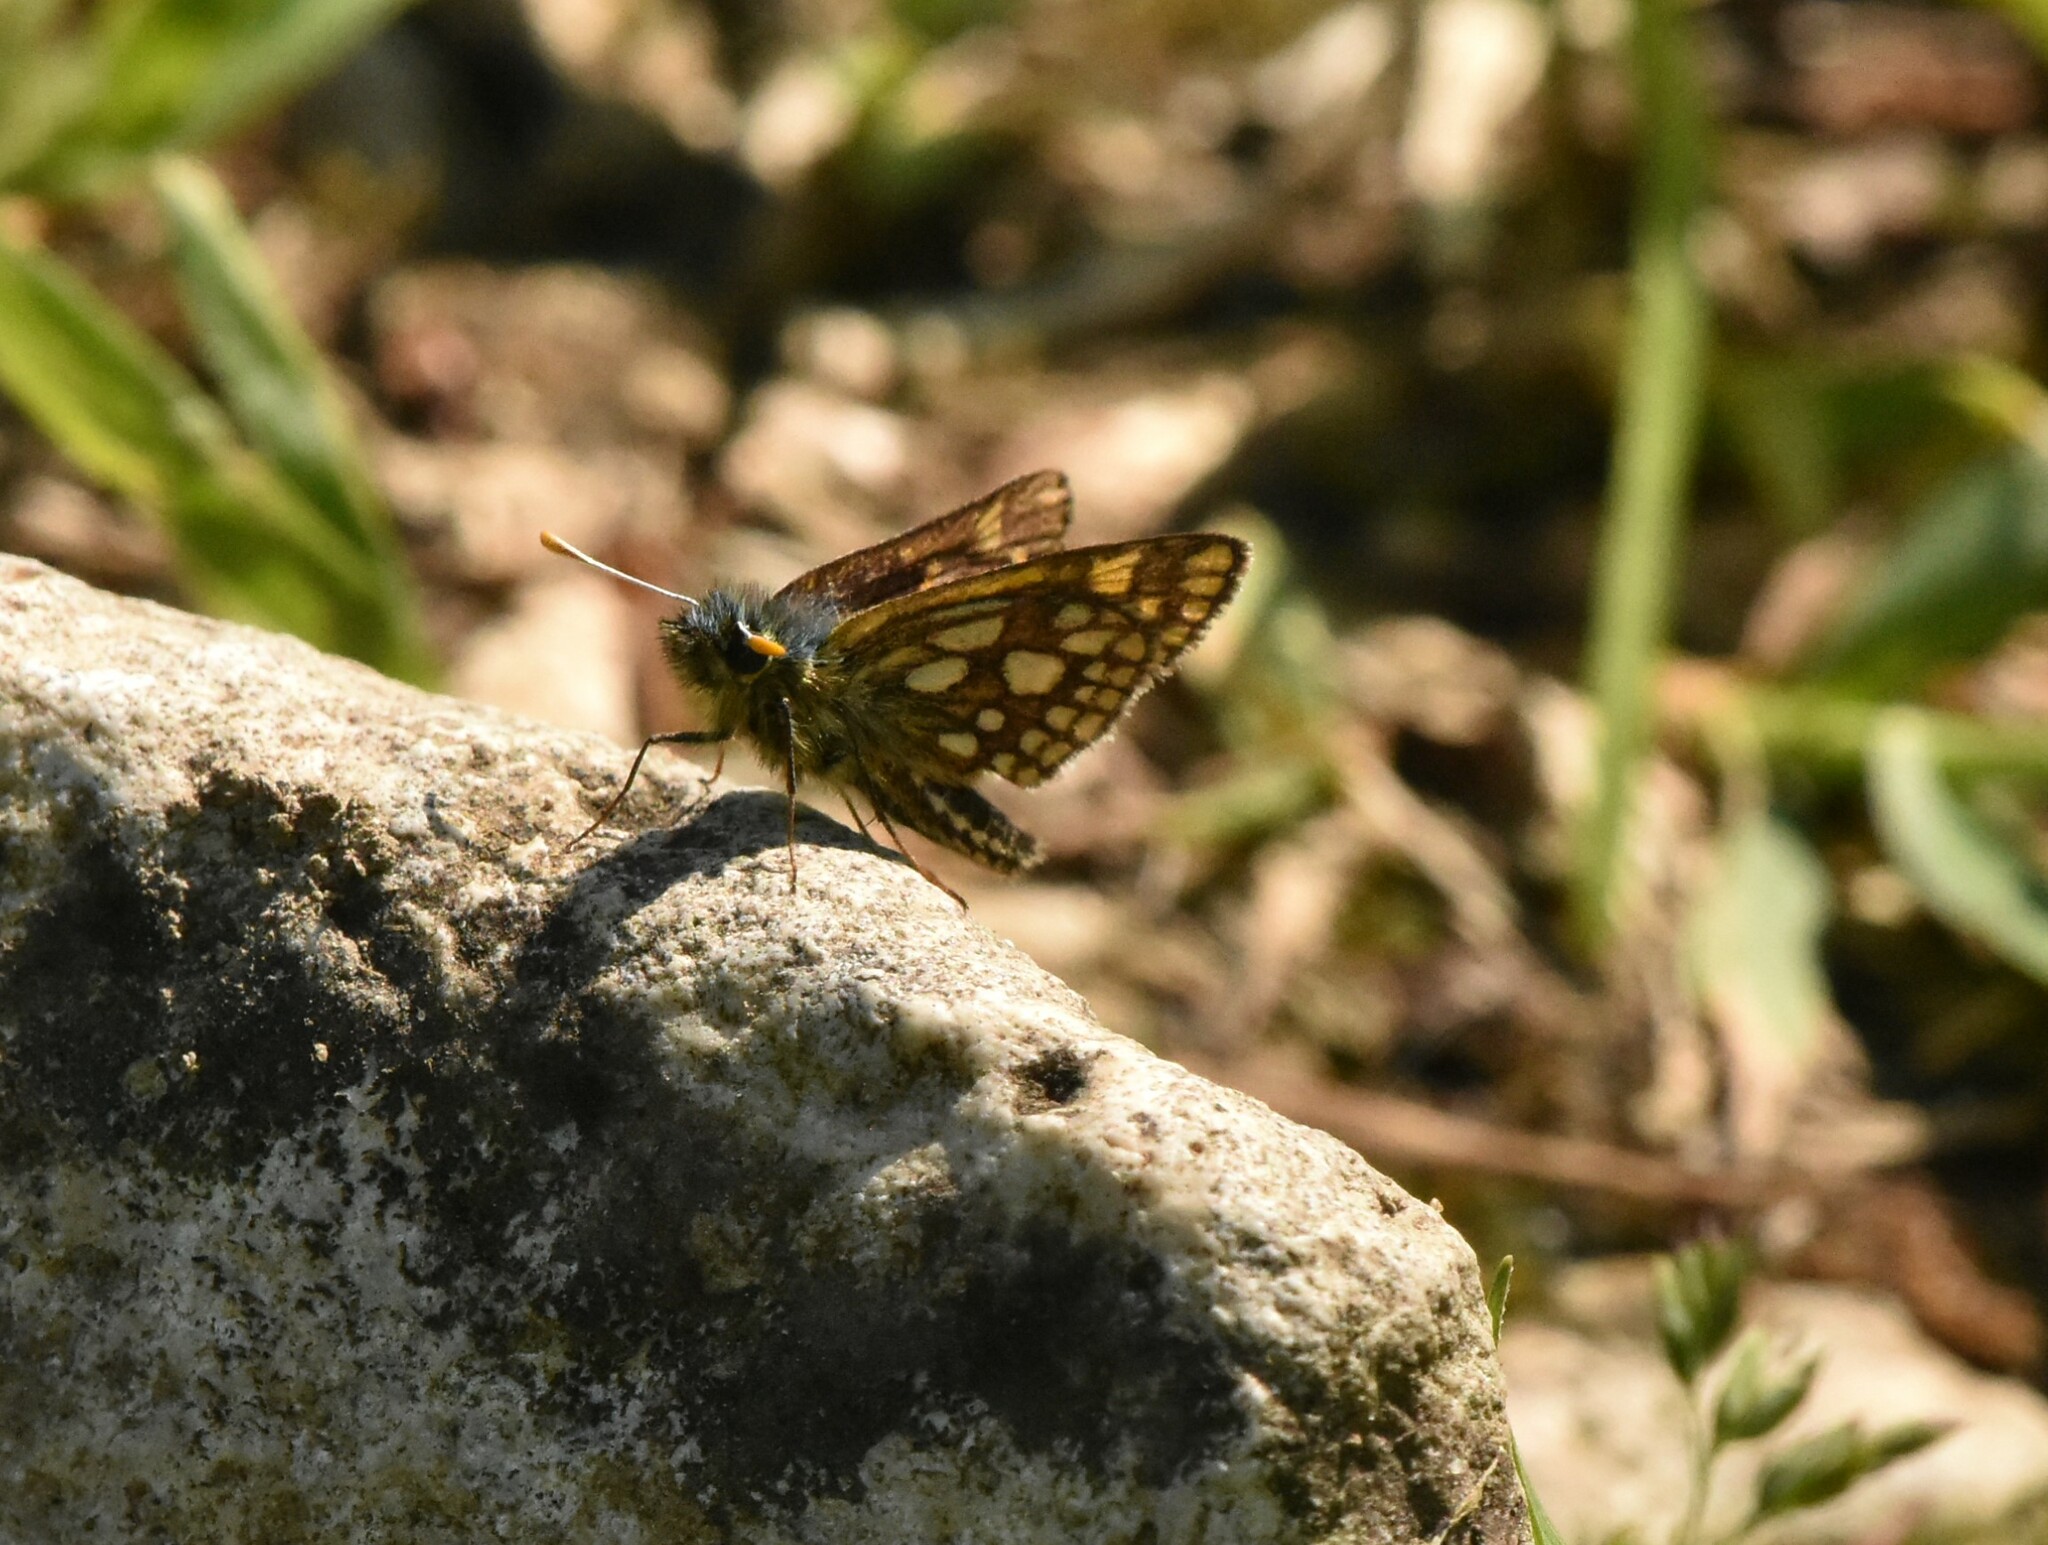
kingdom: Animalia
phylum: Arthropoda
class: Insecta
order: Lepidoptera
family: Hesperiidae
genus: Carterocephalus
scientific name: Carterocephalus palaemon
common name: Chequered skipper
